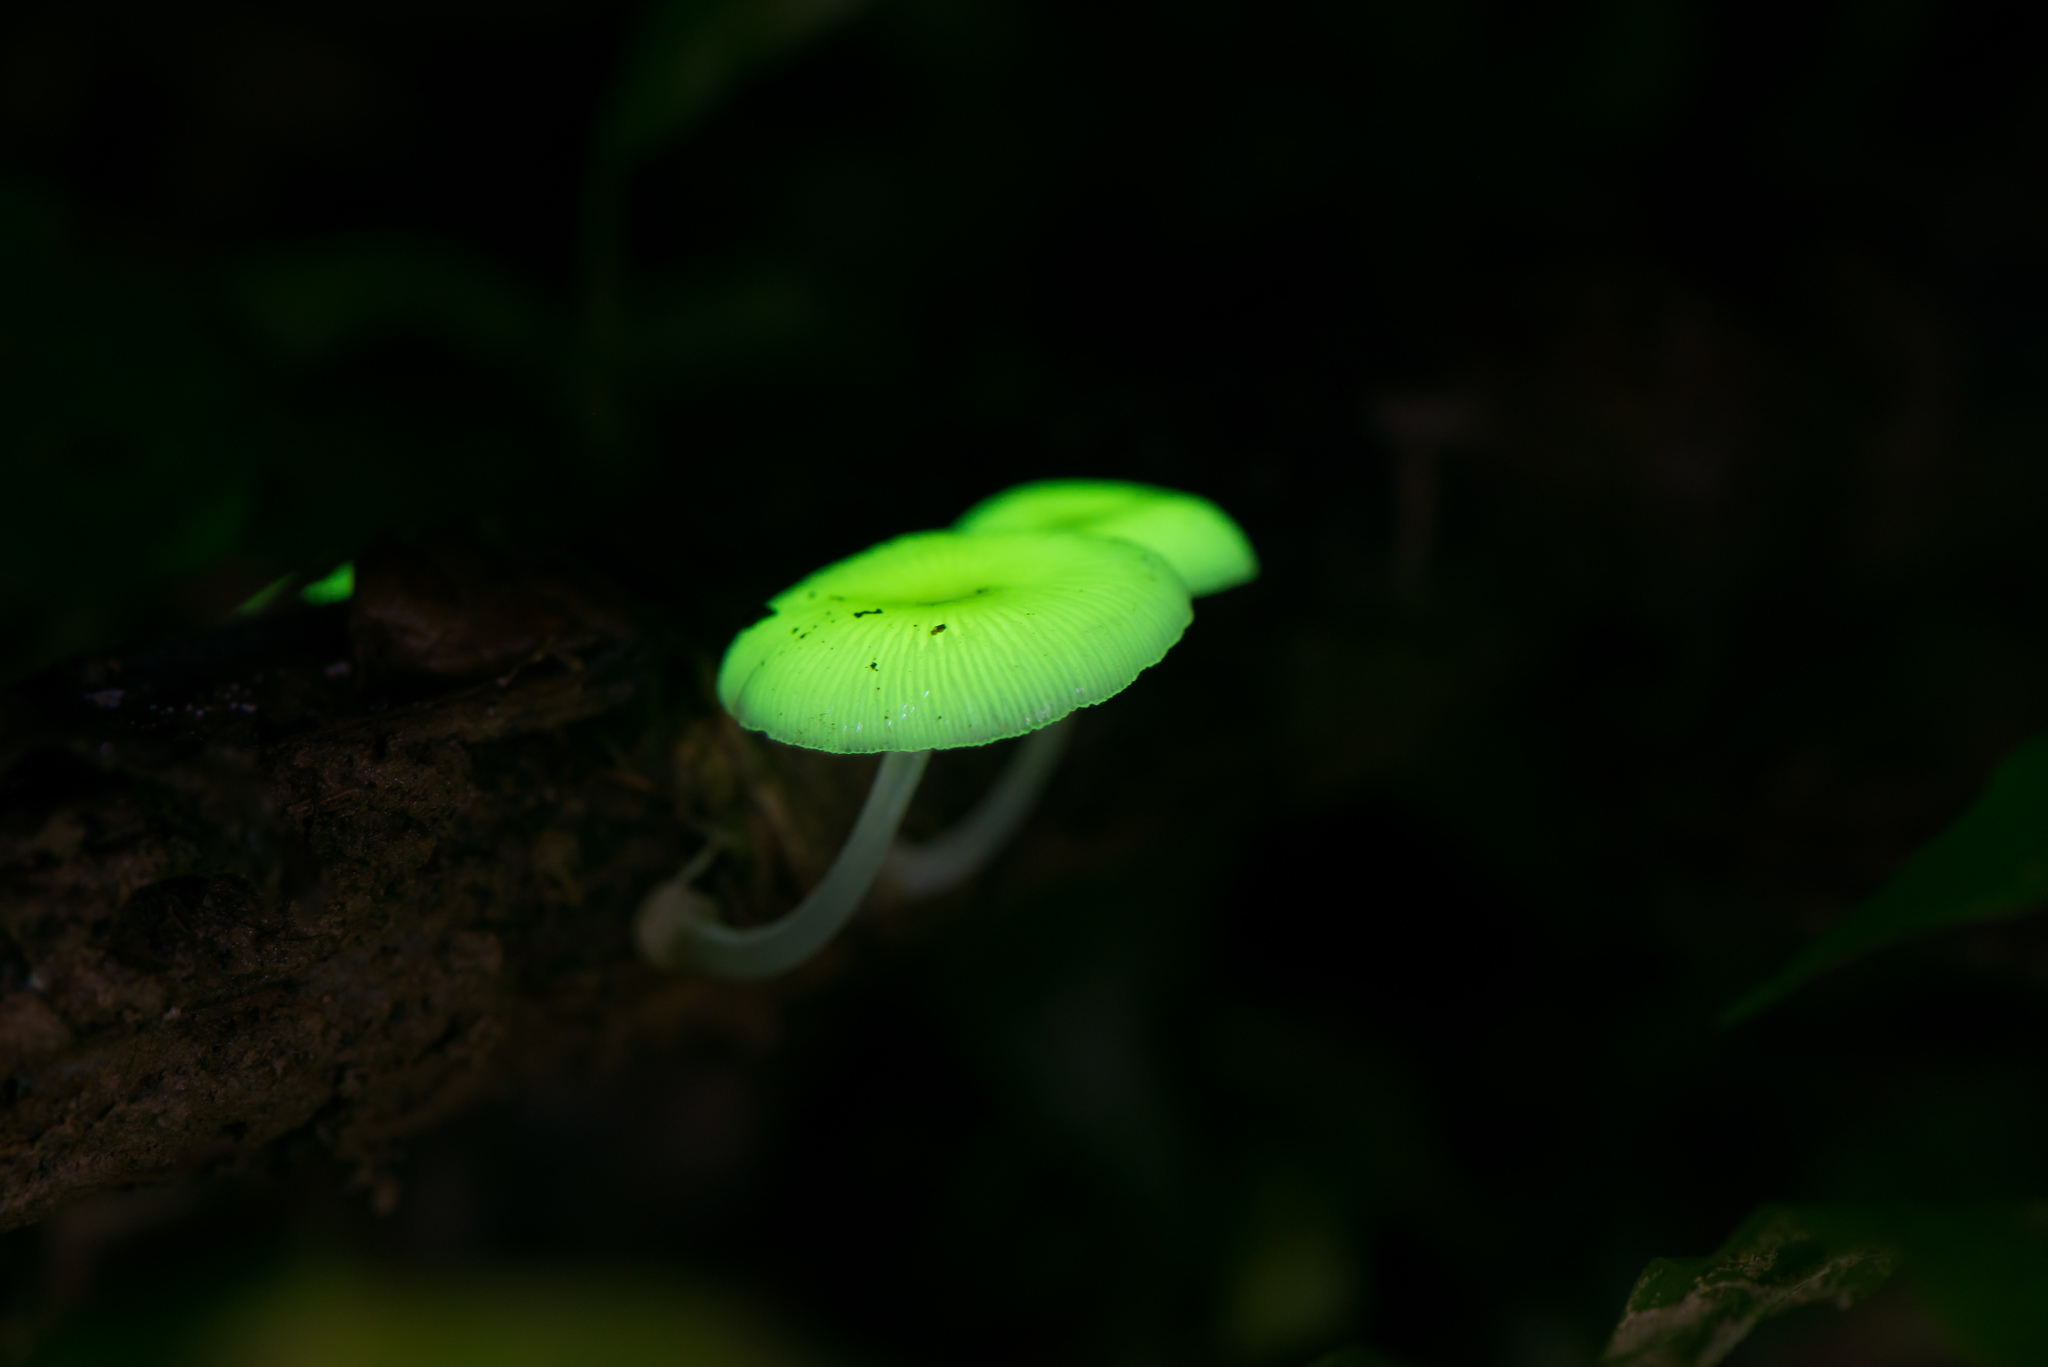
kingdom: Fungi
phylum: Basidiomycota
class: Agaricomycetes
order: Agaricales
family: Mycenaceae
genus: Mycena
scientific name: Mycena chlorophos
